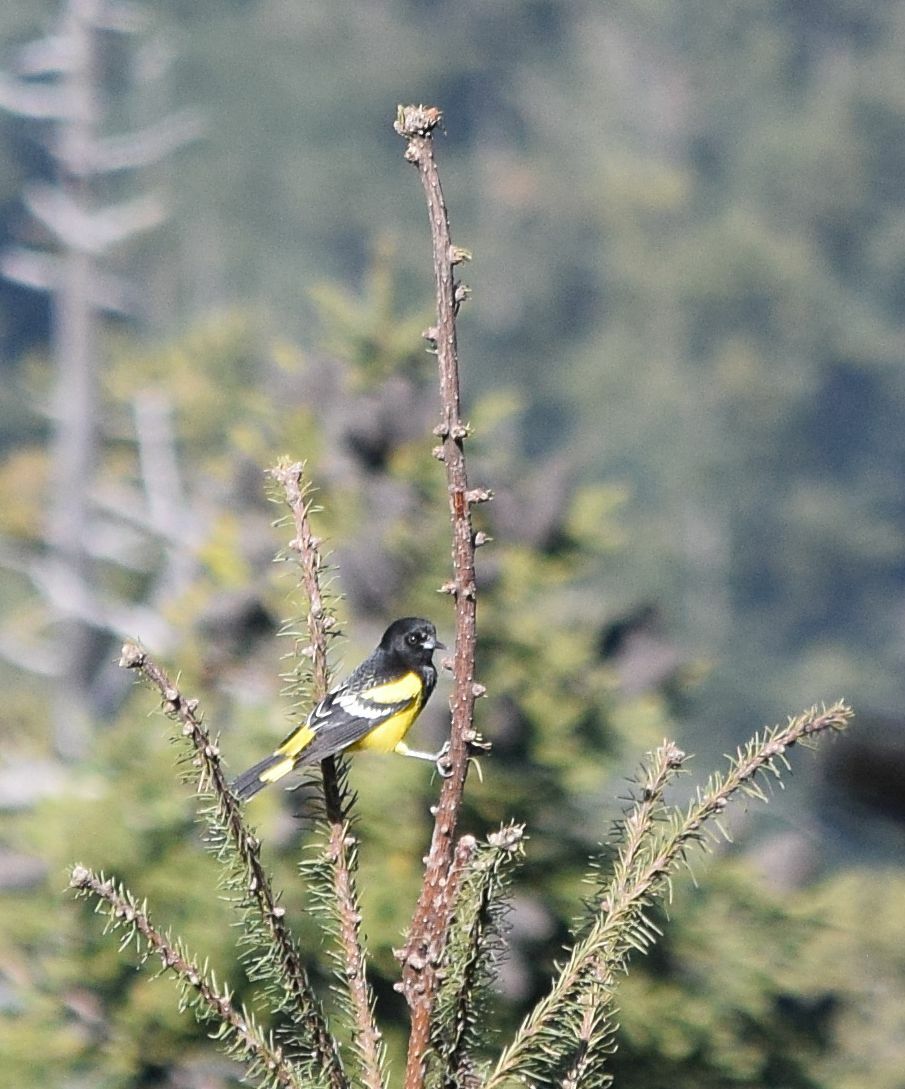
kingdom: Animalia
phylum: Chordata
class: Aves
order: Passeriformes
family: Icteridae
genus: Icterus
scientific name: Icterus parisorum
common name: Scott's oriole
